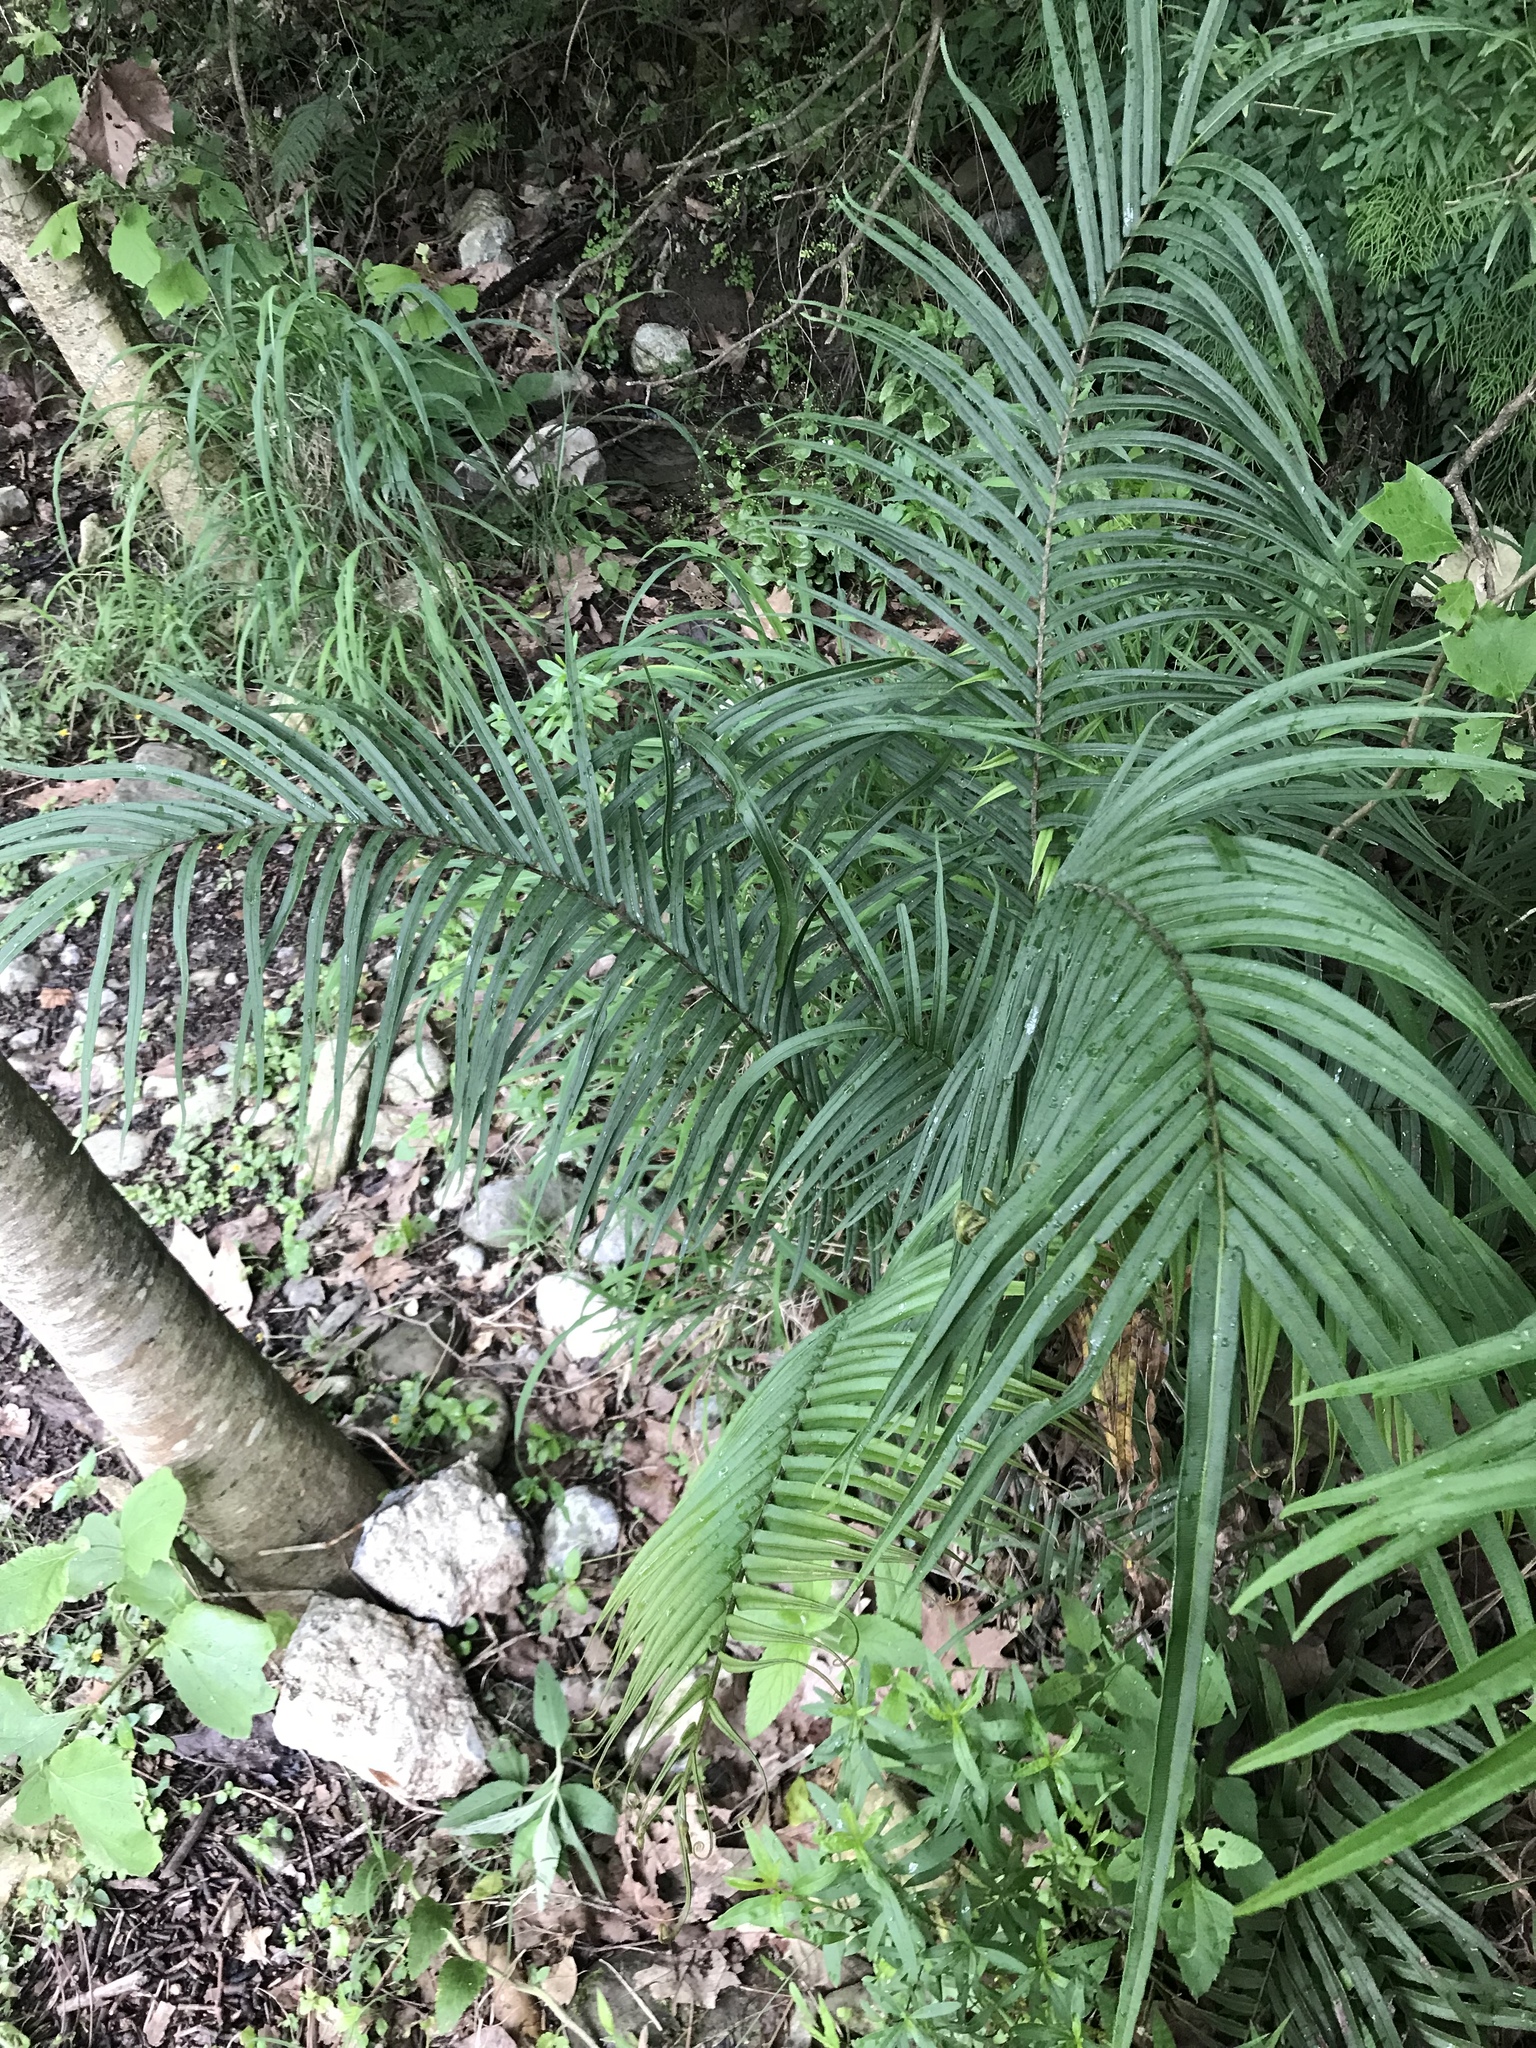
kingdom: Plantae
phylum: Tracheophyta
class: Polypodiopsida
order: Polypodiales
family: Pteridaceae
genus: Pteris
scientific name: Pteris vittata
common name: Ladder brake
